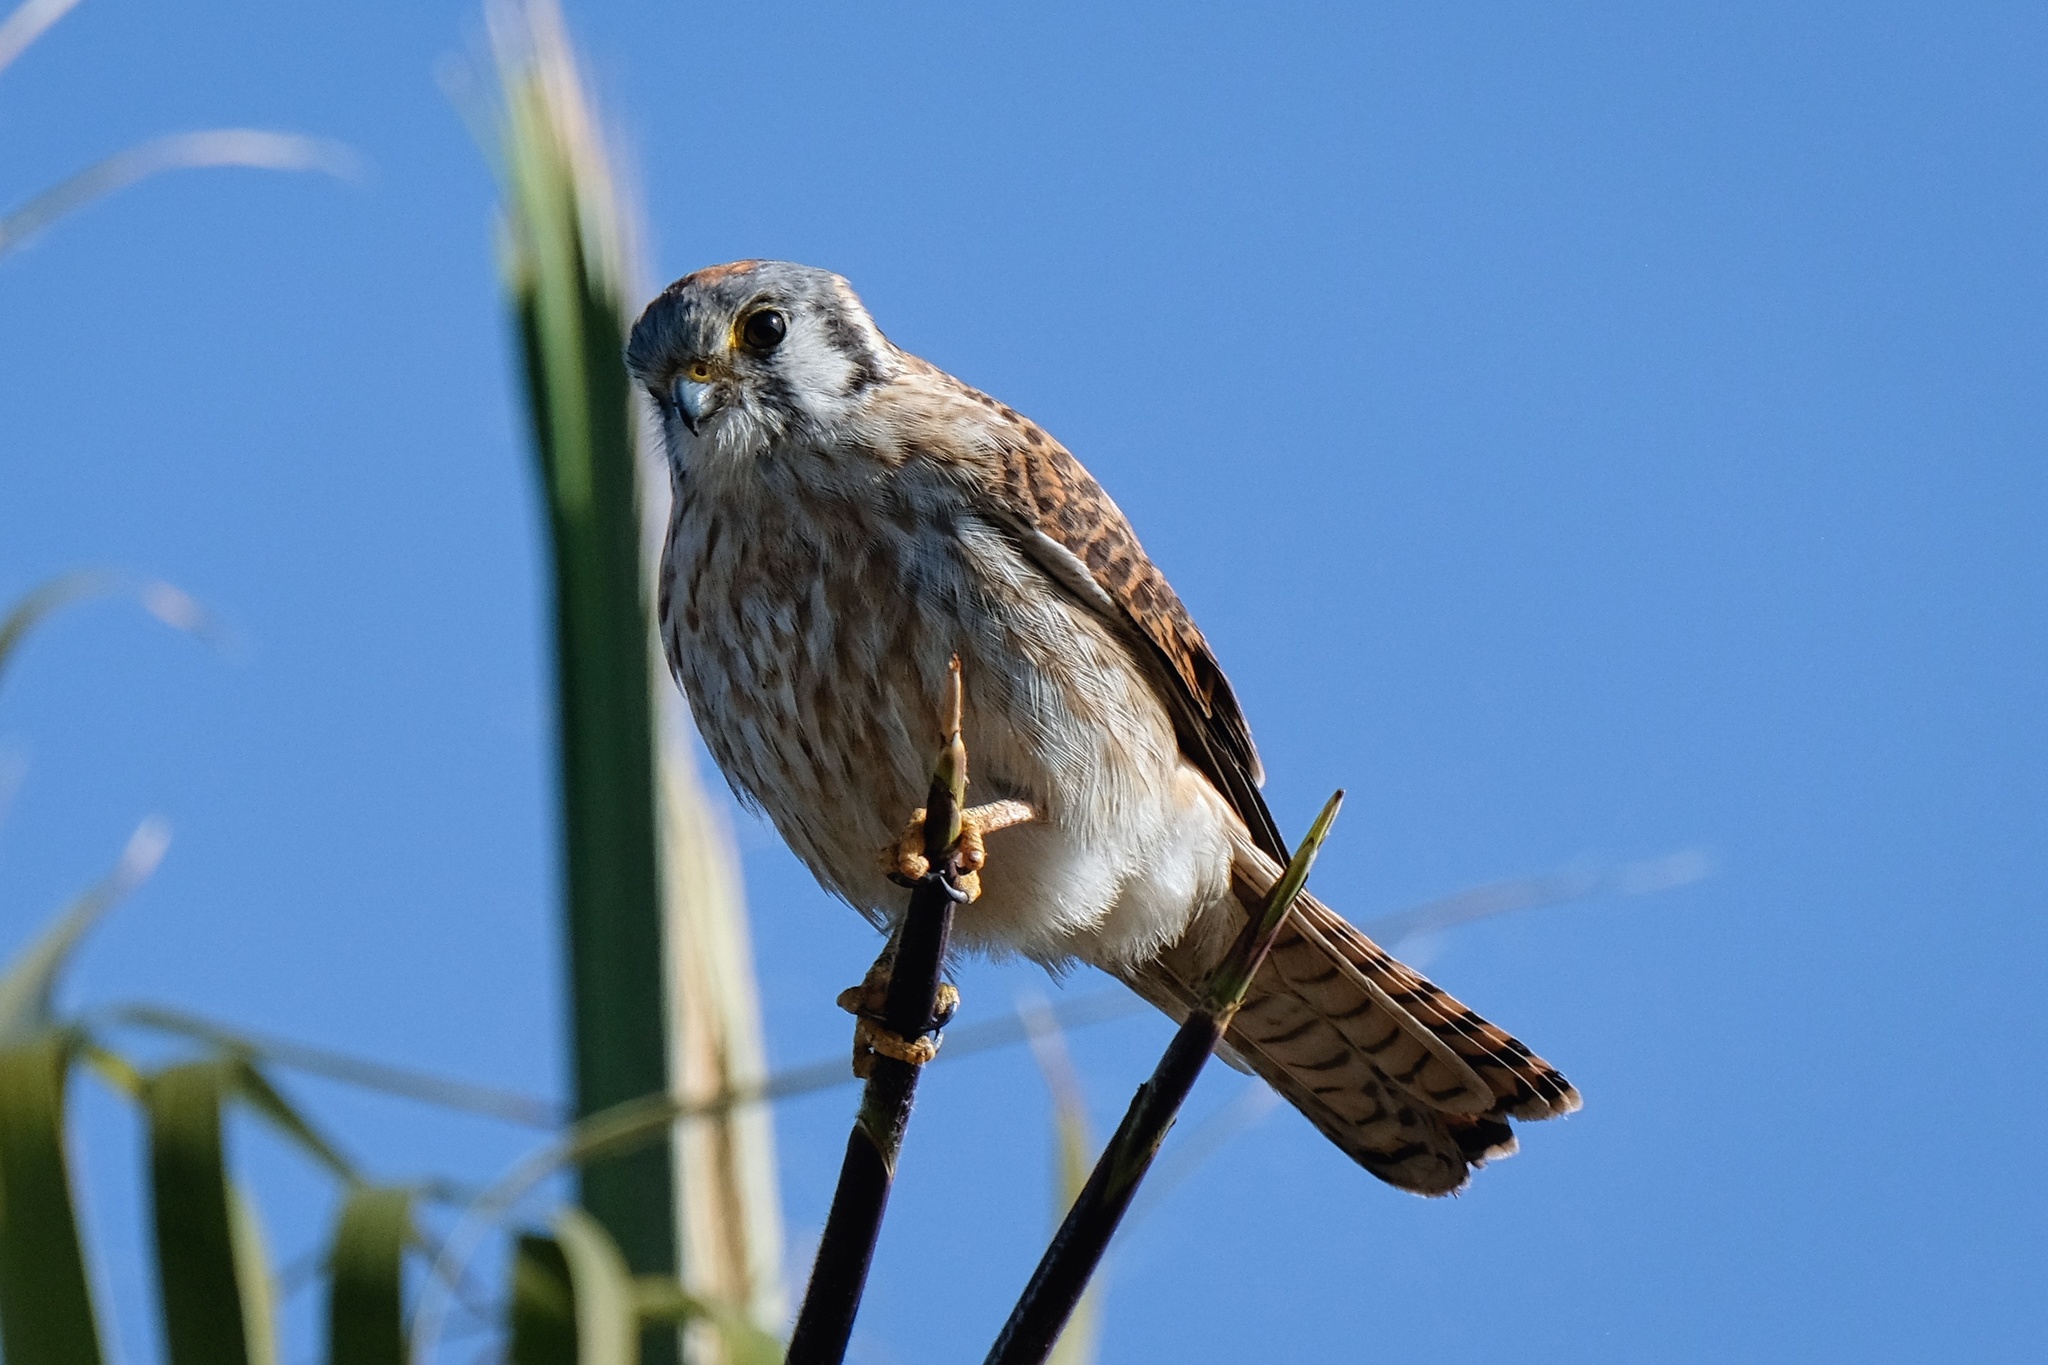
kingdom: Animalia
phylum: Chordata
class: Aves
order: Falconiformes
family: Falconidae
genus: Falco
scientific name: Falco sparverius
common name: American kestrel
